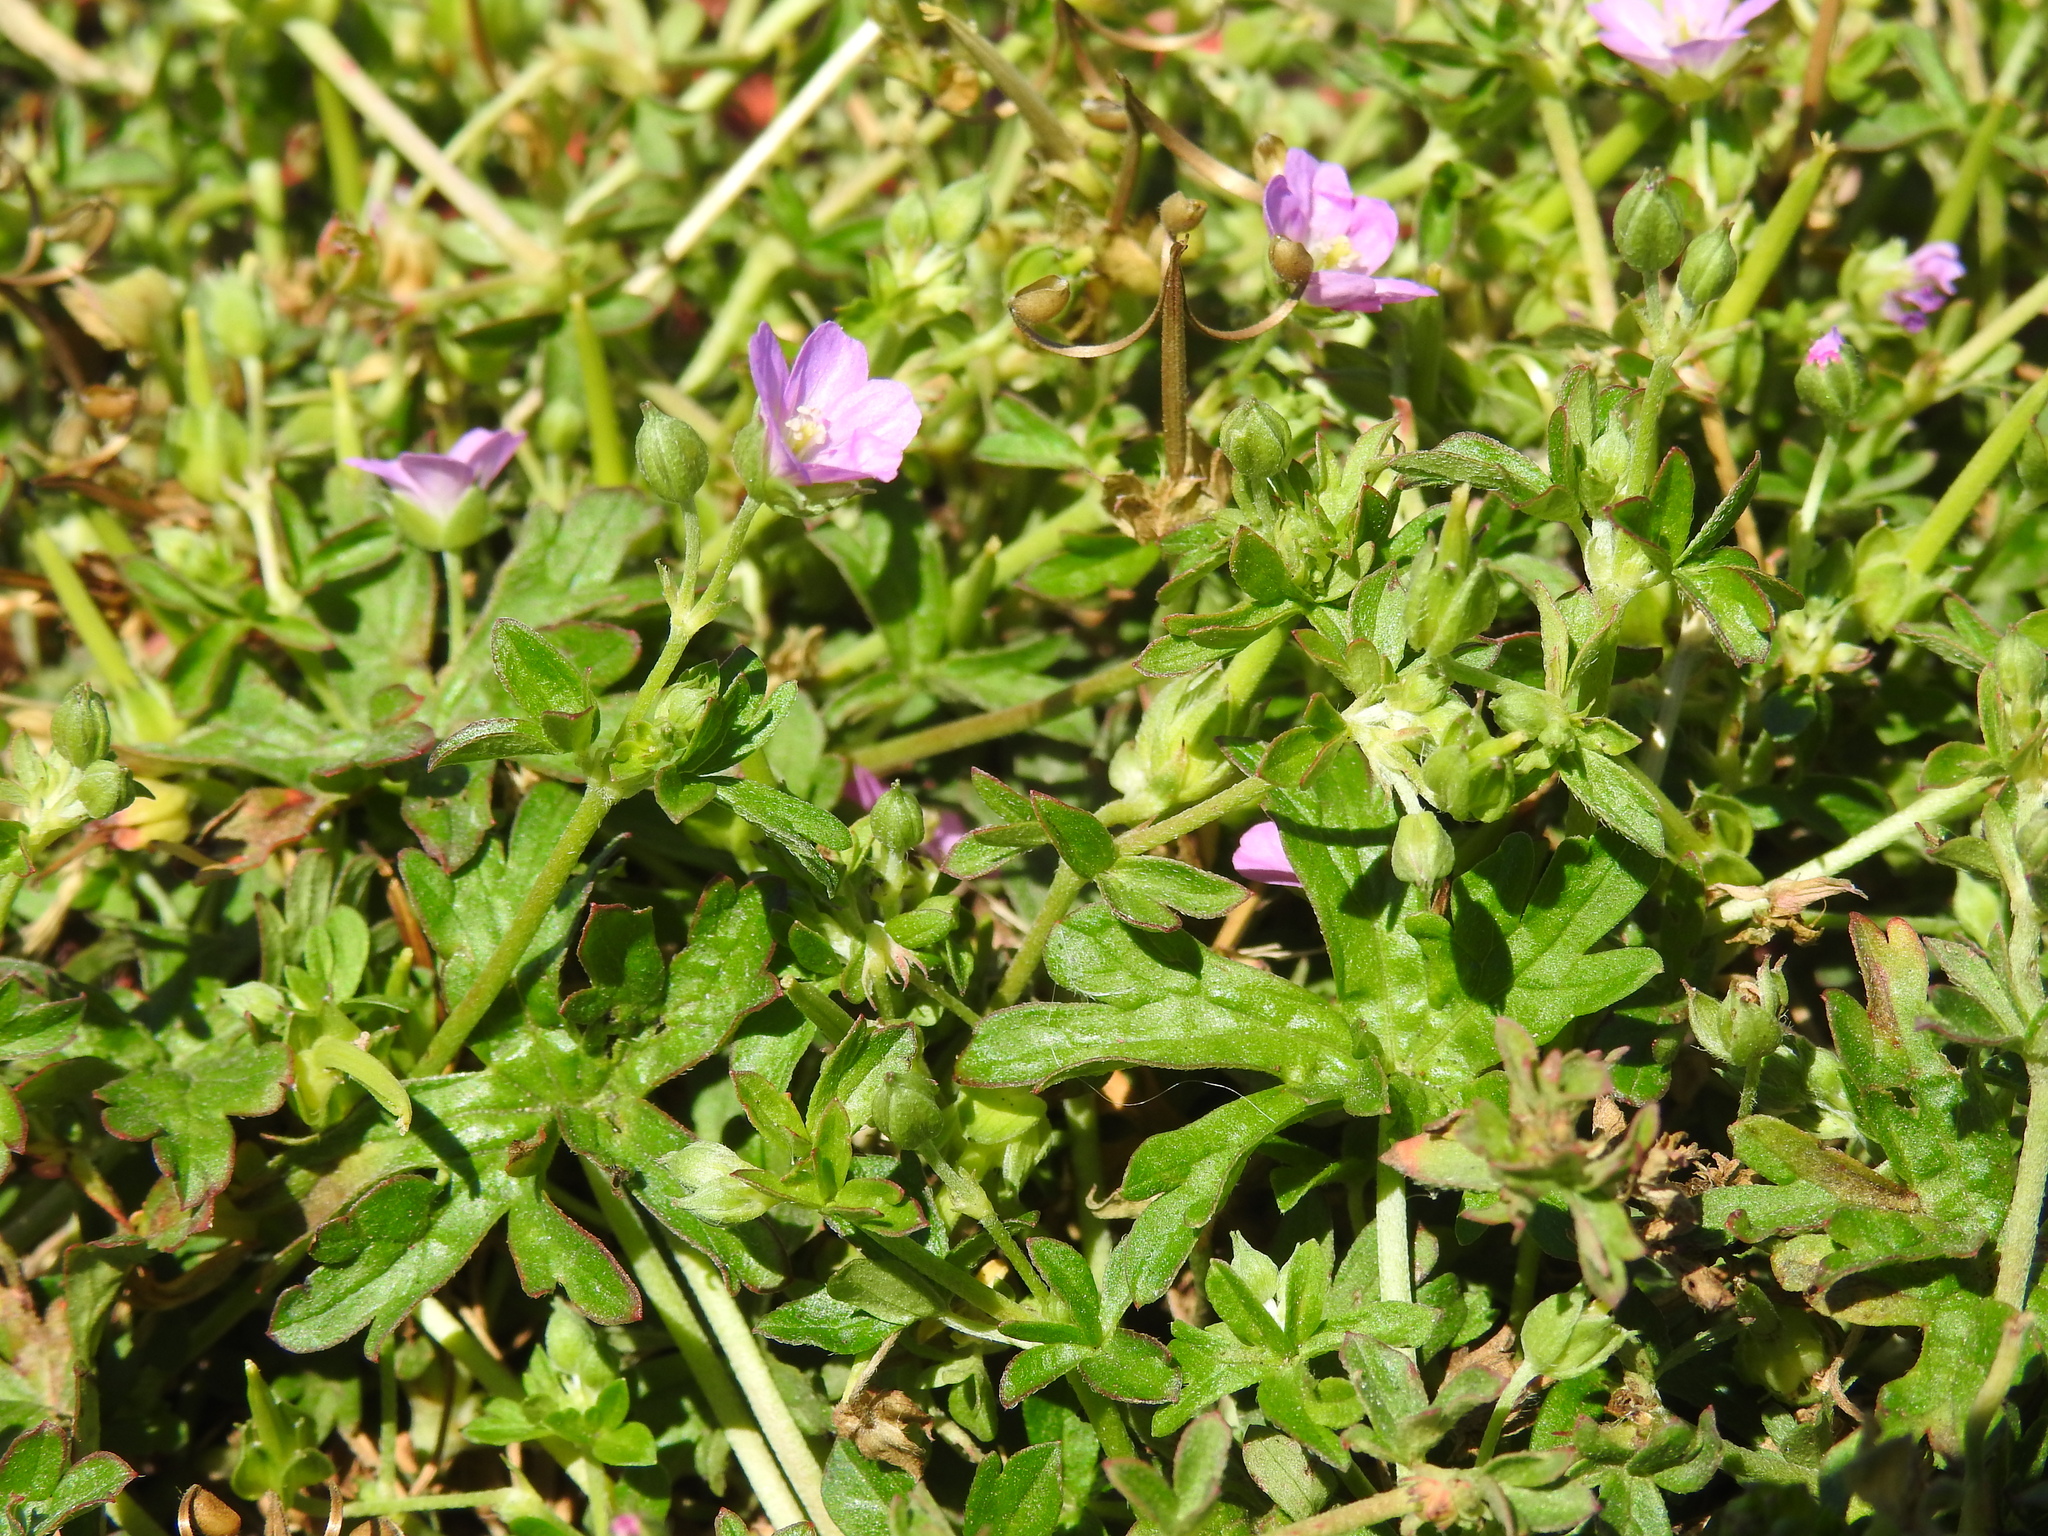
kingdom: Plantae
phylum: Tracheophyta
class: Magnoliopsida
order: Geraniales
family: Geraniaceae
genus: Geranium
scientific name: Geranium core-core
